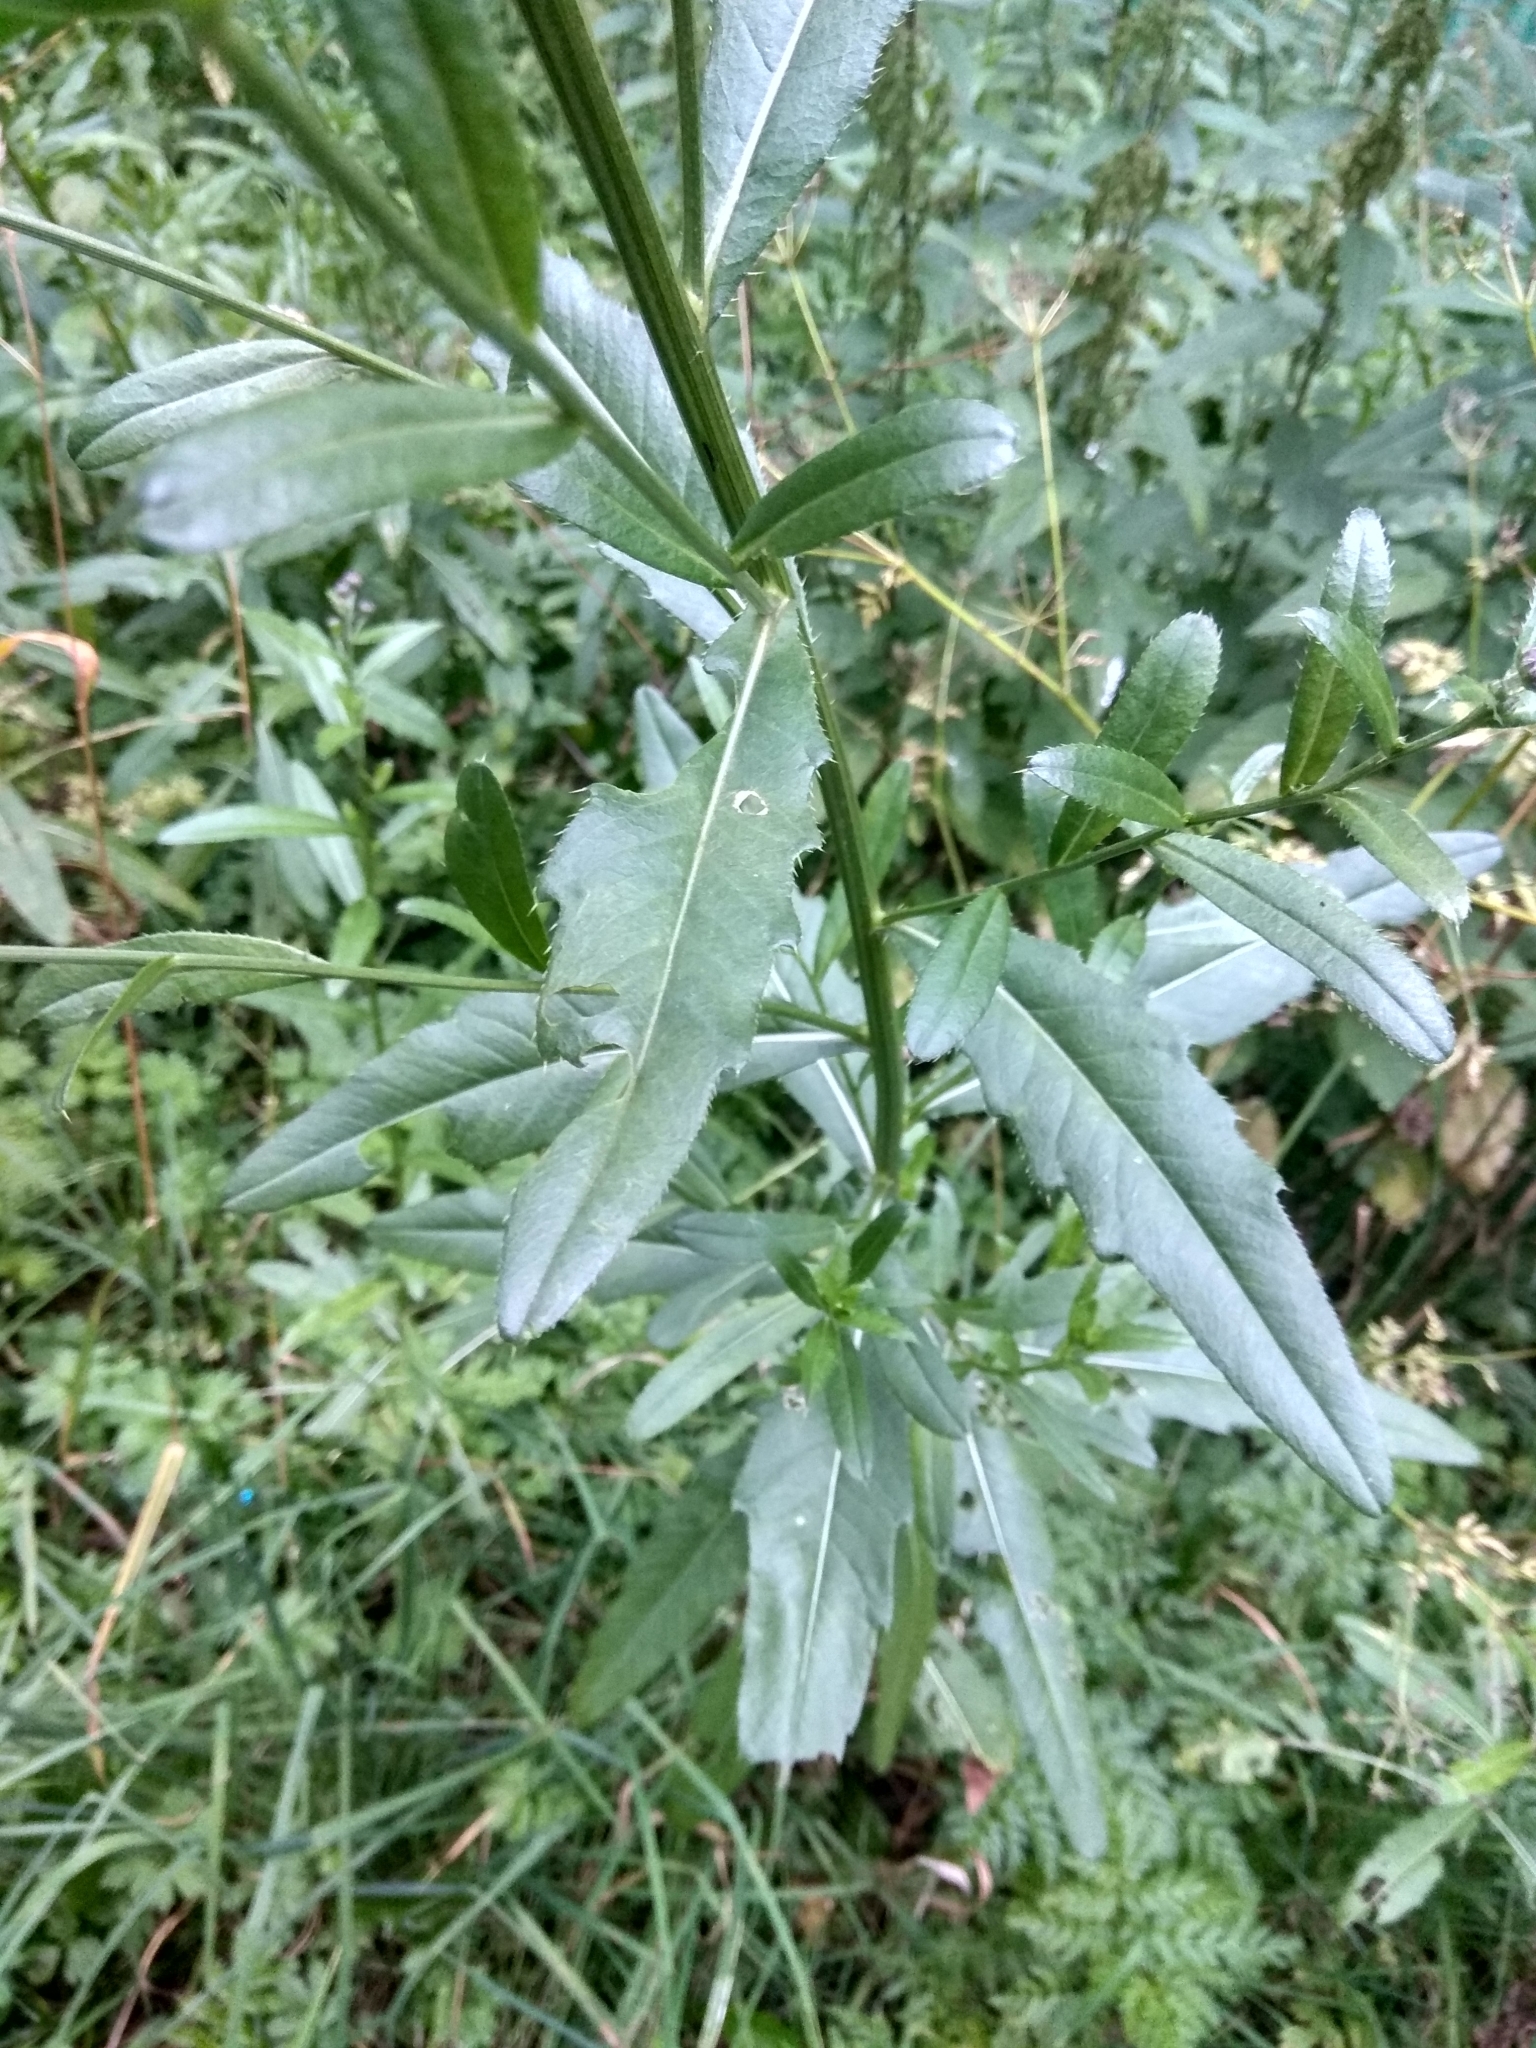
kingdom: Plantae
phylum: Tracheophyta
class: Magnoliopsida
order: Asterales
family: Asteraceae
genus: Cirsium
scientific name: Cirsium arvense
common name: Creeping thistle
